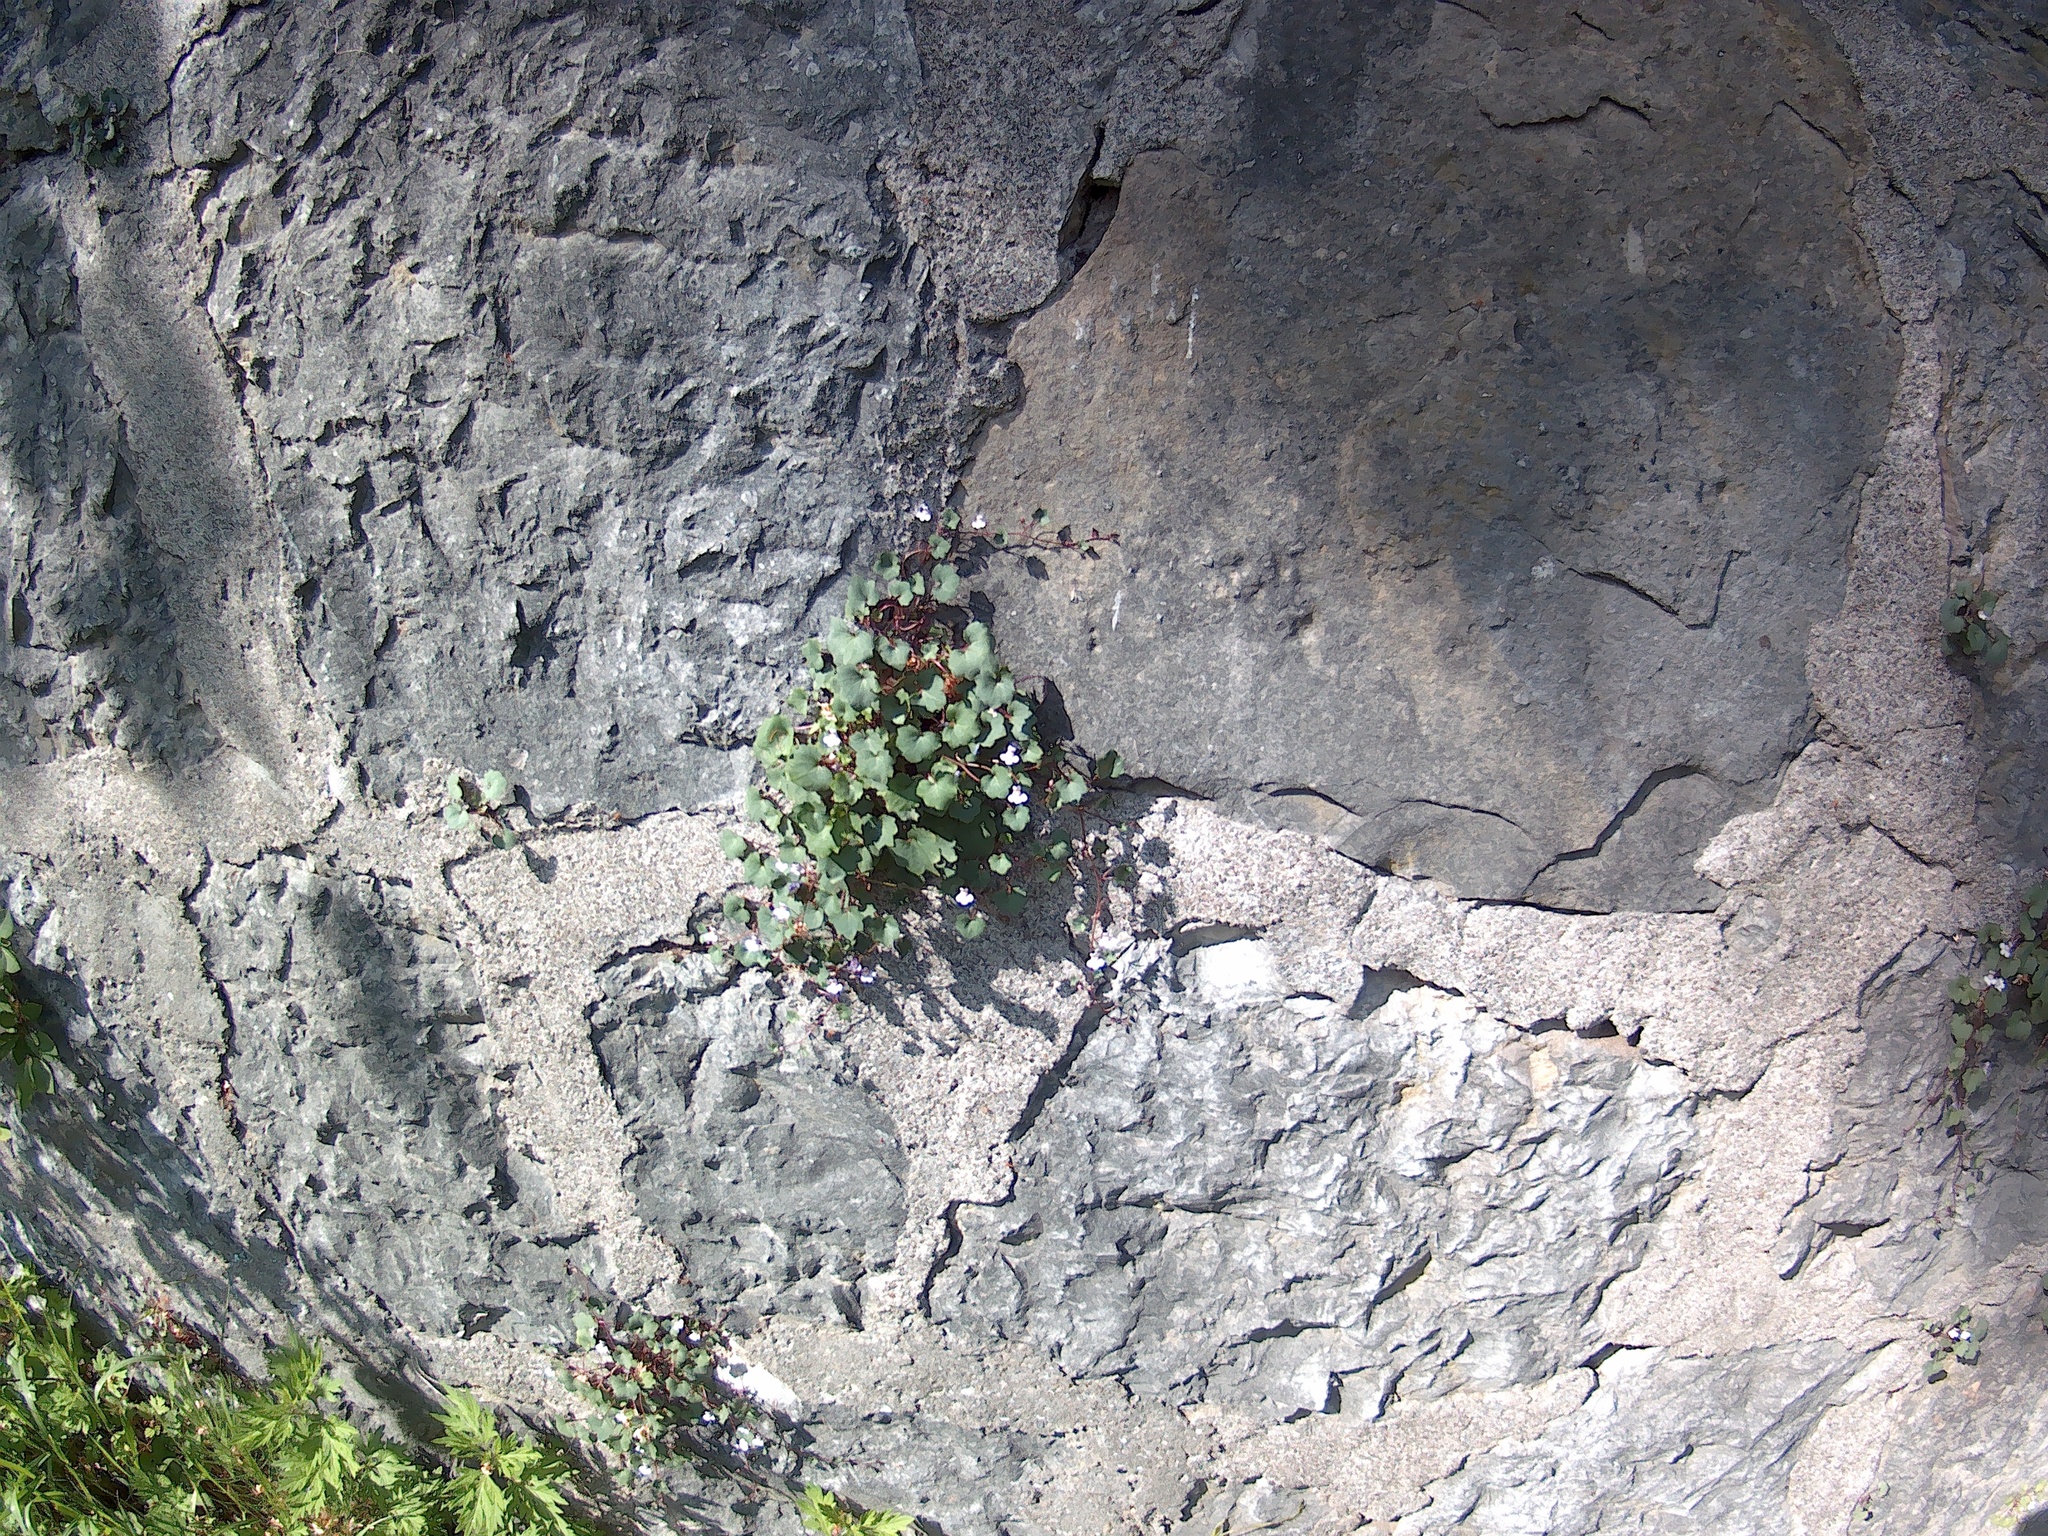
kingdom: Plantae
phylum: Tracheophyta
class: Magnoliopsida
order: Lamiales
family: Plantaginaceae
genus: Cymbalaria
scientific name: Cymbalaria muralis
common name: Ivy-leaved toadflax
